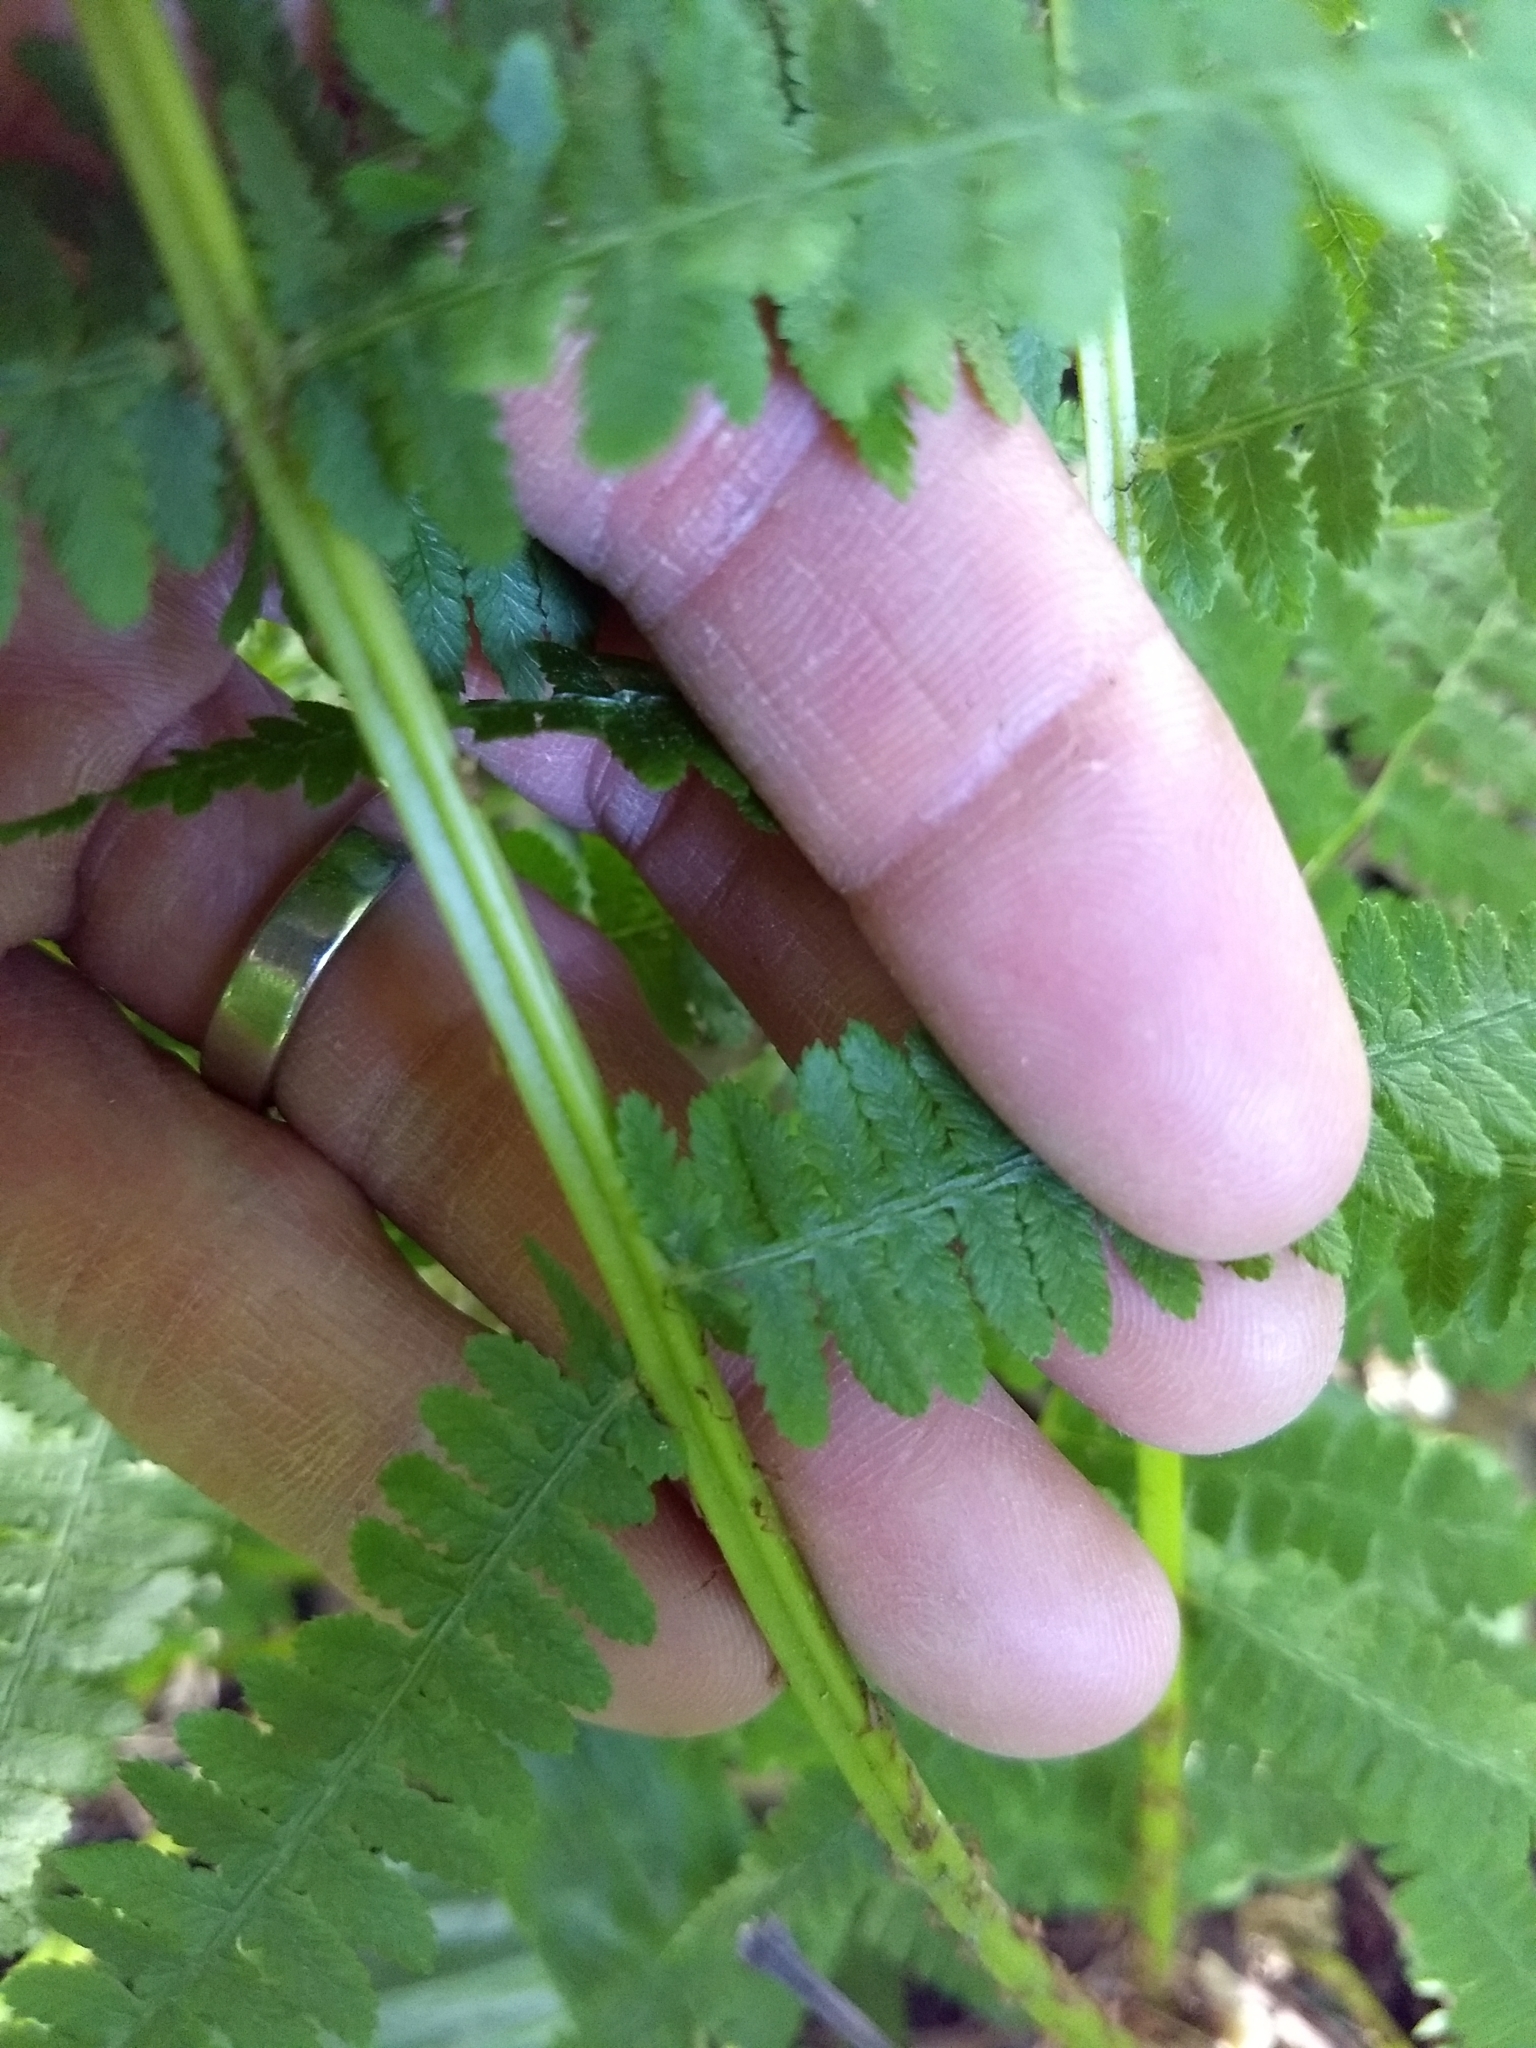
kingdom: Plantae
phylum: Tracheophyta
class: Polypodiopsida
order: Polypodiales
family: Athyriaceae
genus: Athyrium
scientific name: Athyrium angustum
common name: Northern lady fern
